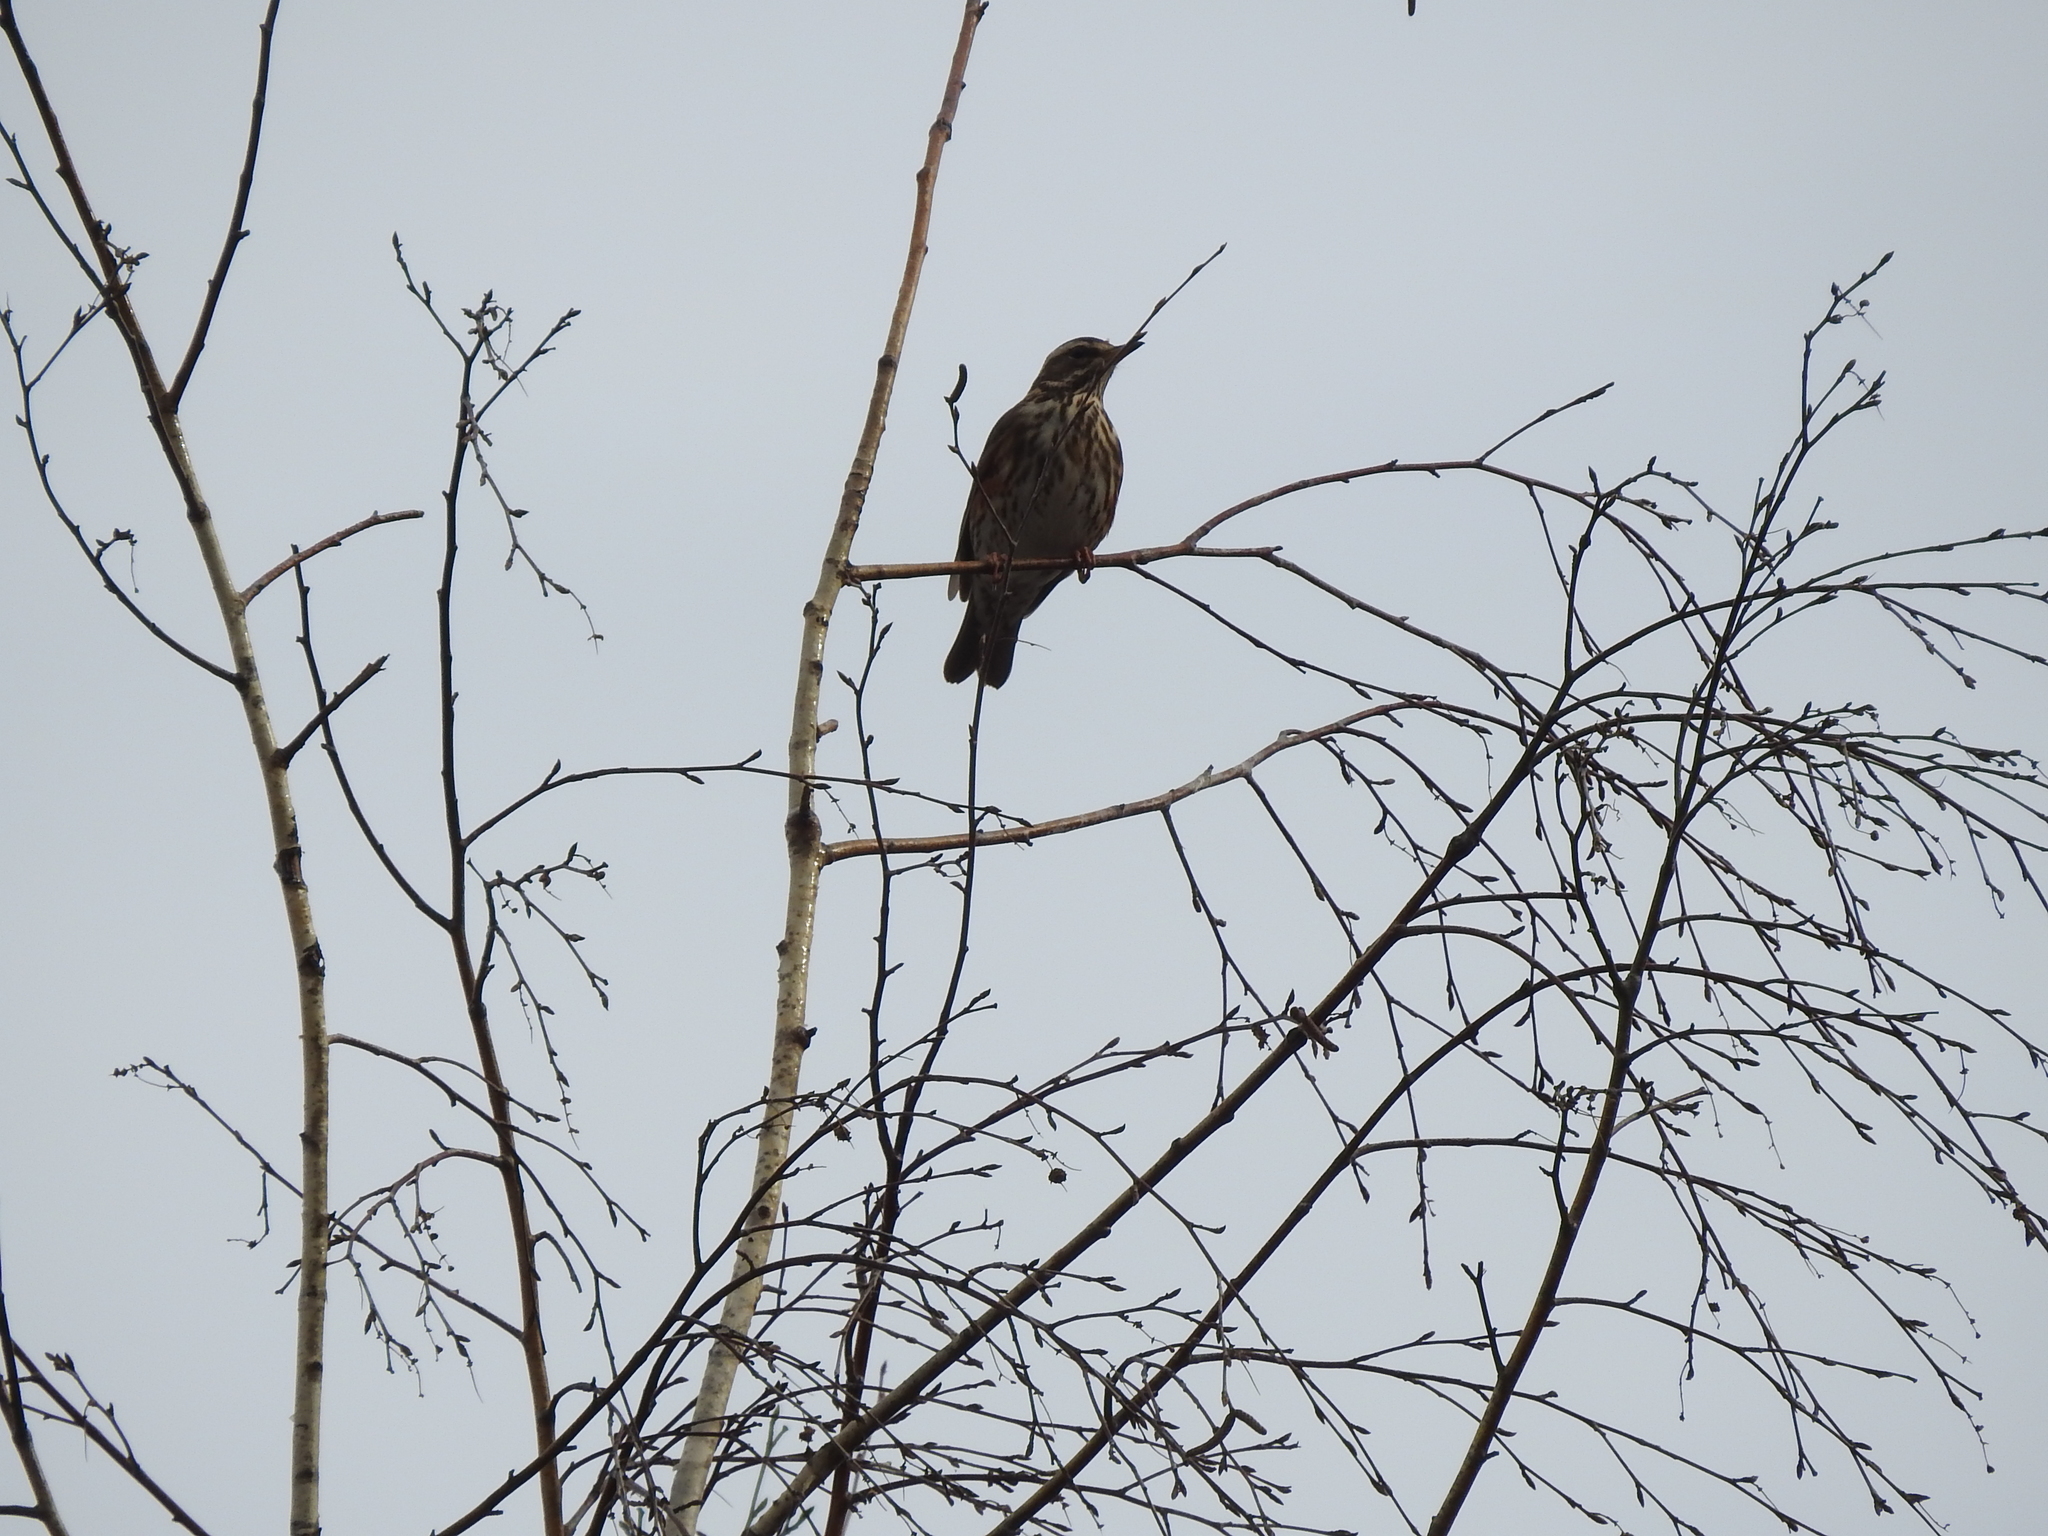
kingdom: Animalia
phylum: Chordata
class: Aves
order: Passeriformes
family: Turdidae
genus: Turdus
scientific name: Turdus iliacus
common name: Redwing
